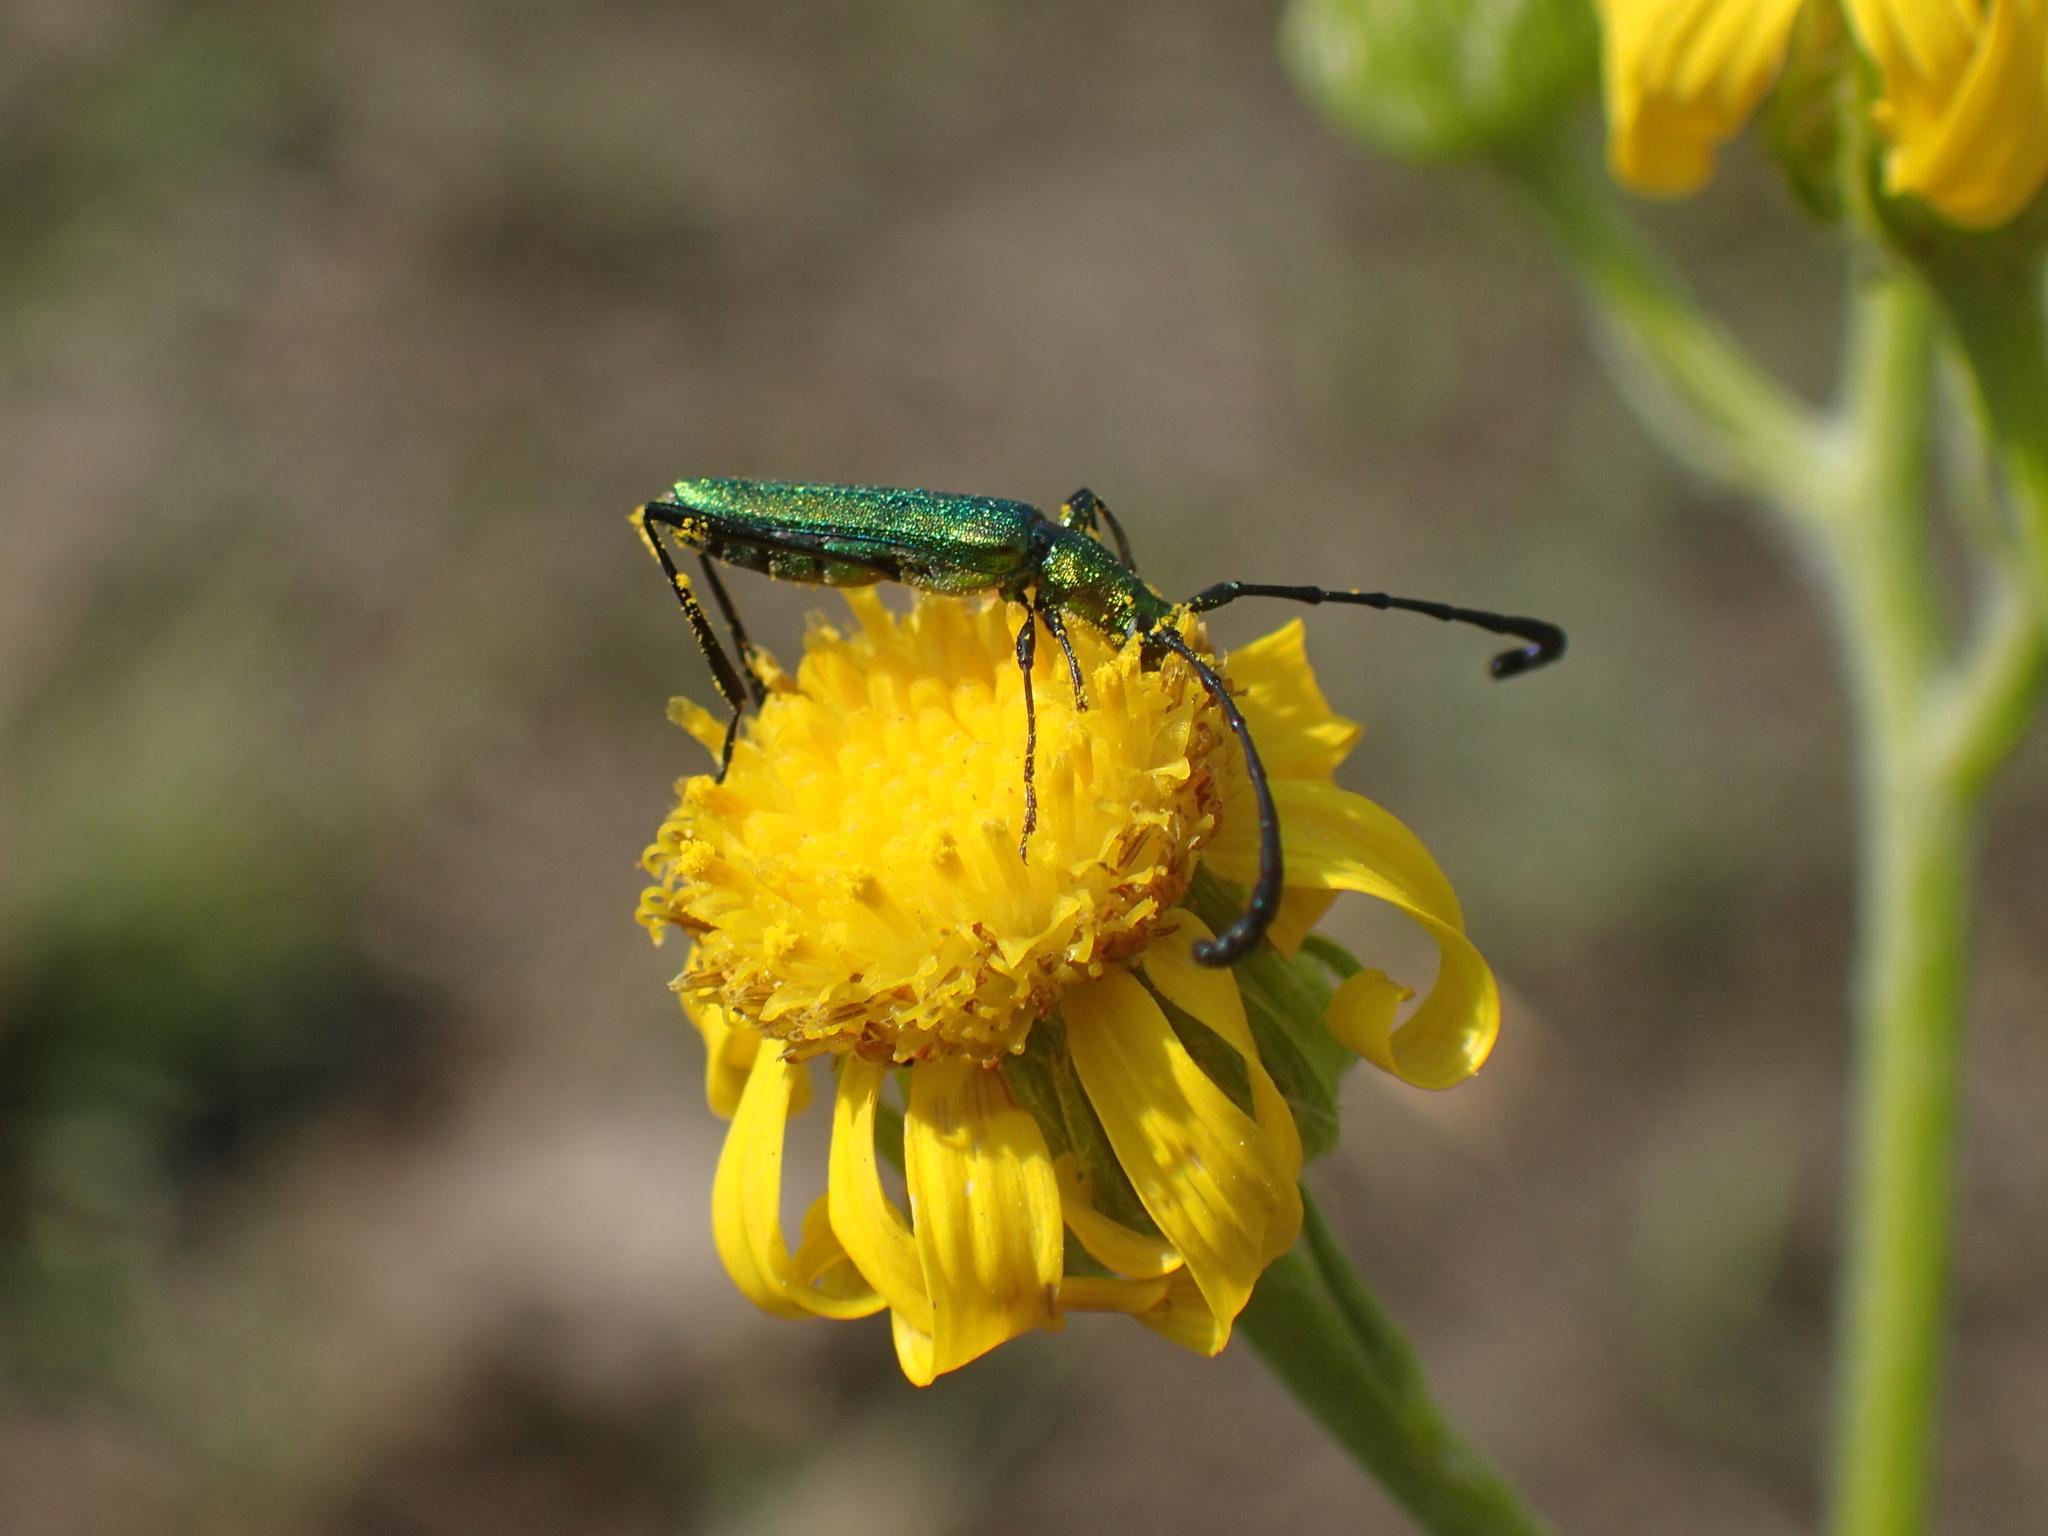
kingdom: Animalia
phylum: Arthropoda
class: Insecta
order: Coleoptera
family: Cerambycidae
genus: Hypocrites
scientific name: Hypocrites
